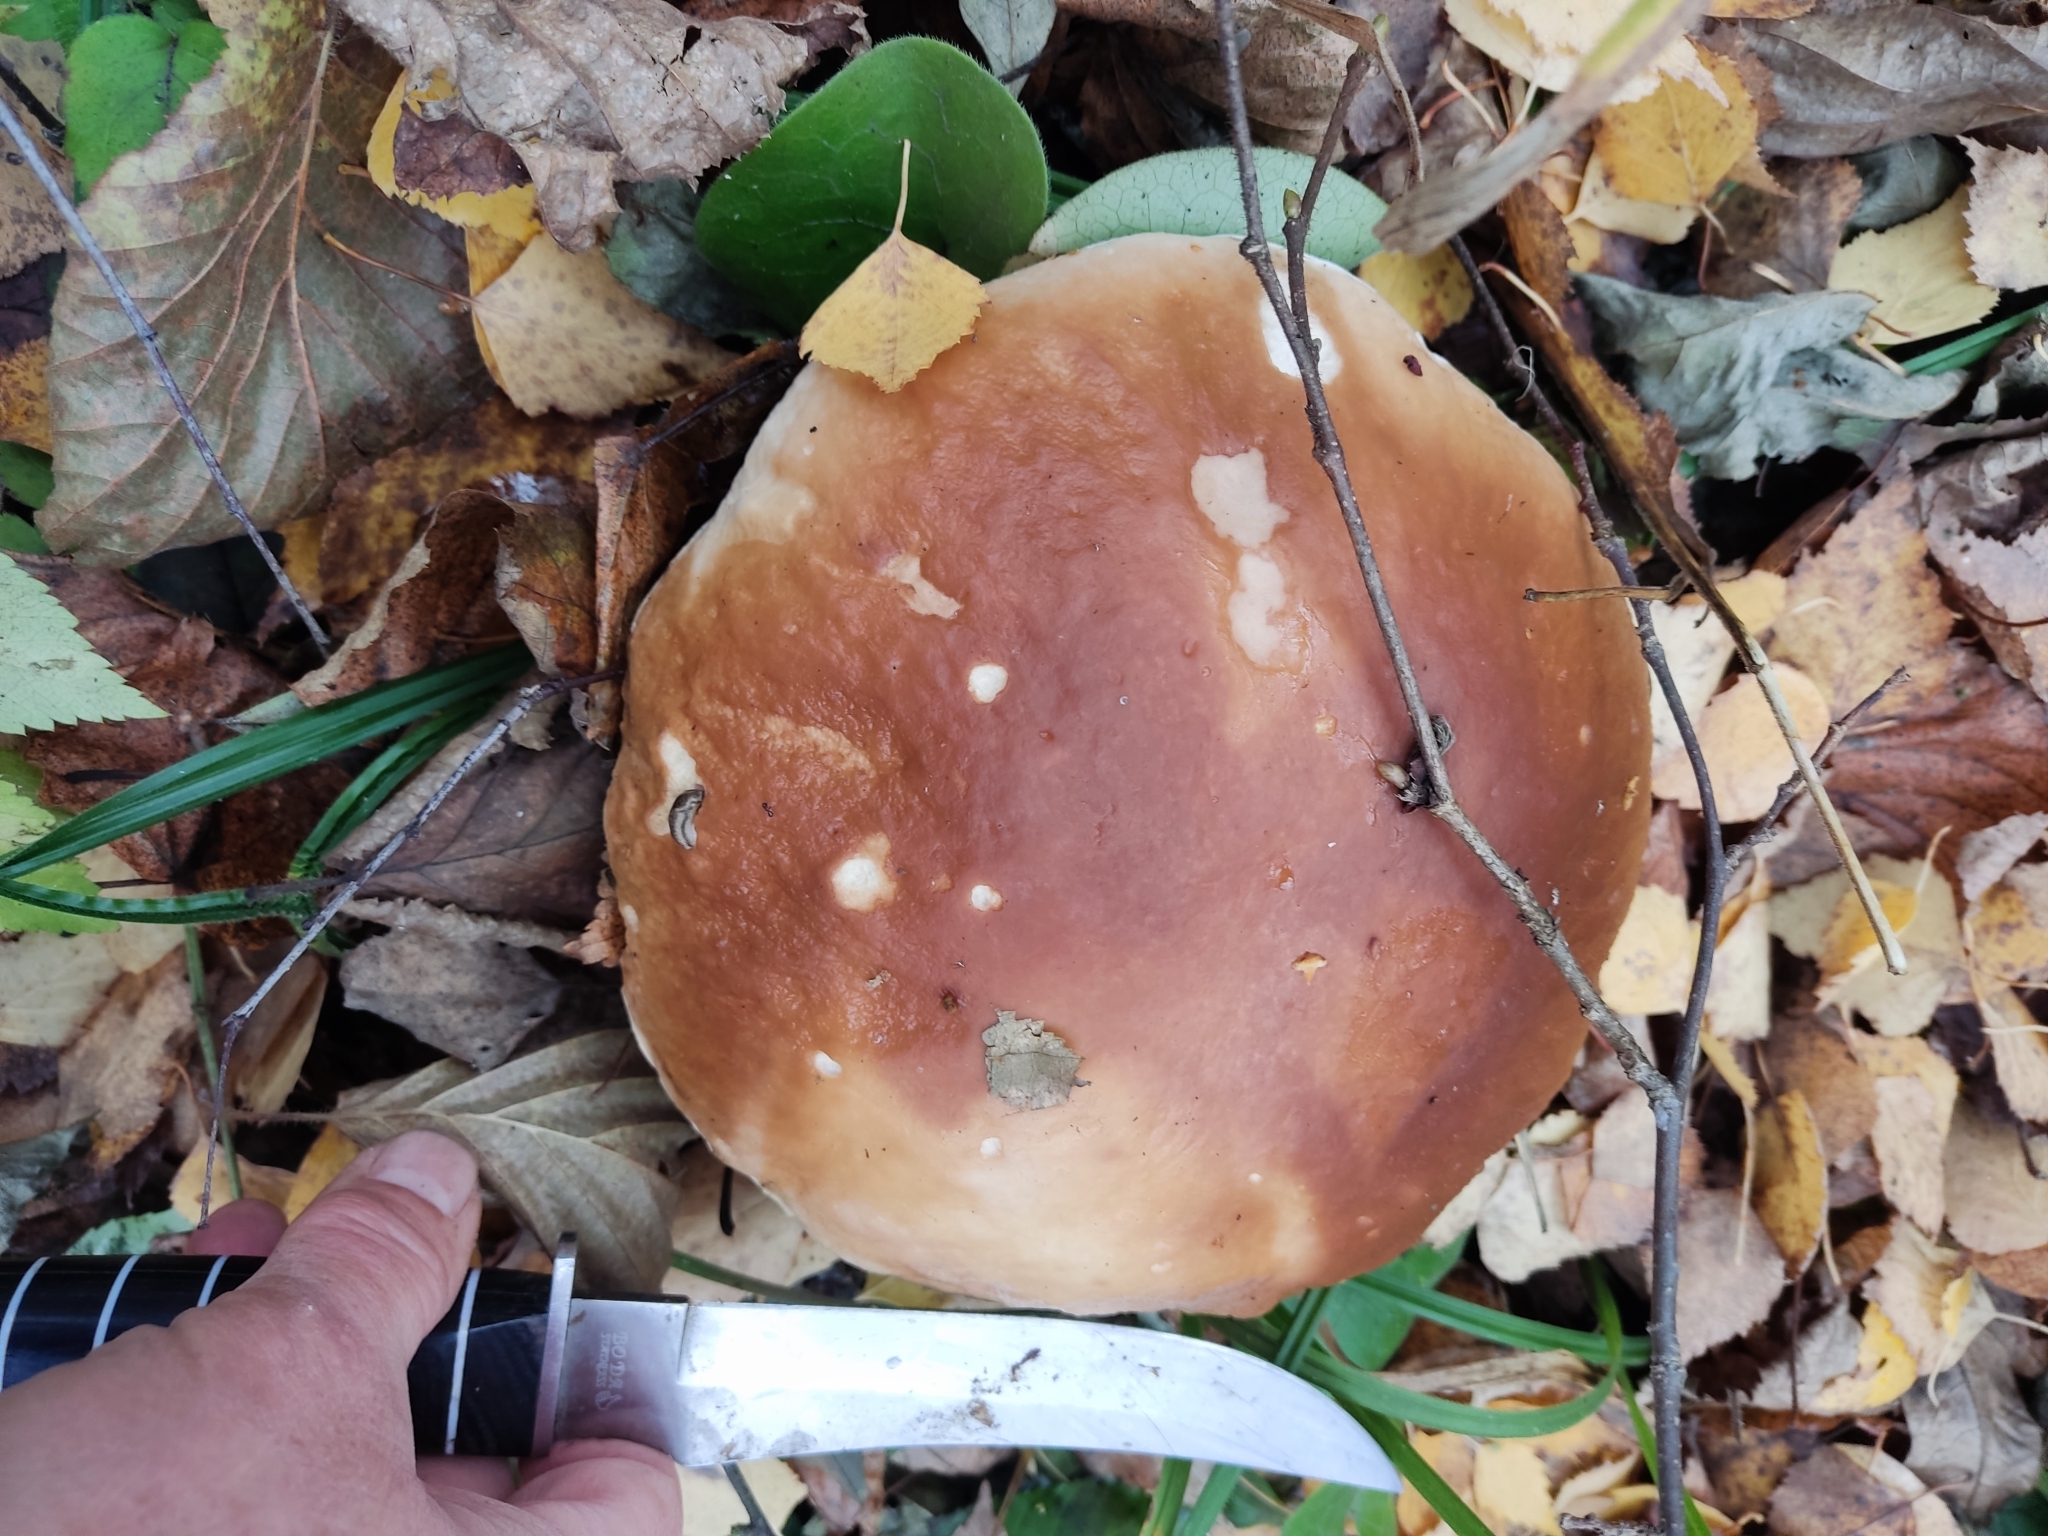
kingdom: Fungi
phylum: Basidiomycota
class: Agaricomycetes
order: Boletales
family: Boletaceae
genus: Boletus
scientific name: Boletus edulis
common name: Cep
